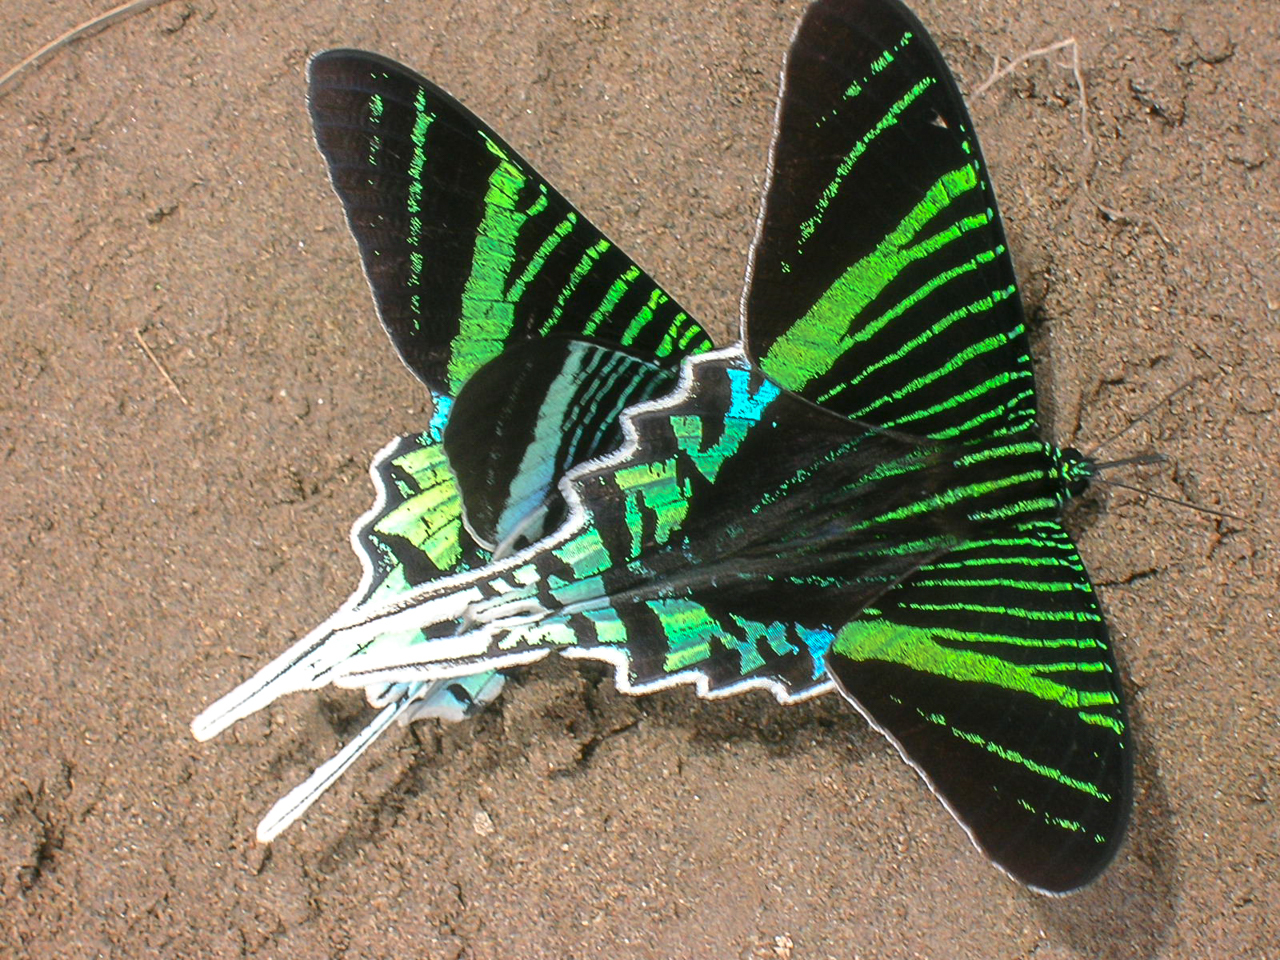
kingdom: Animalia
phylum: Arthropoda
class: Insecta
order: Lepidoptera
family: Uraniidae
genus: Urania
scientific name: Urania leilus
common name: Peacock moth
